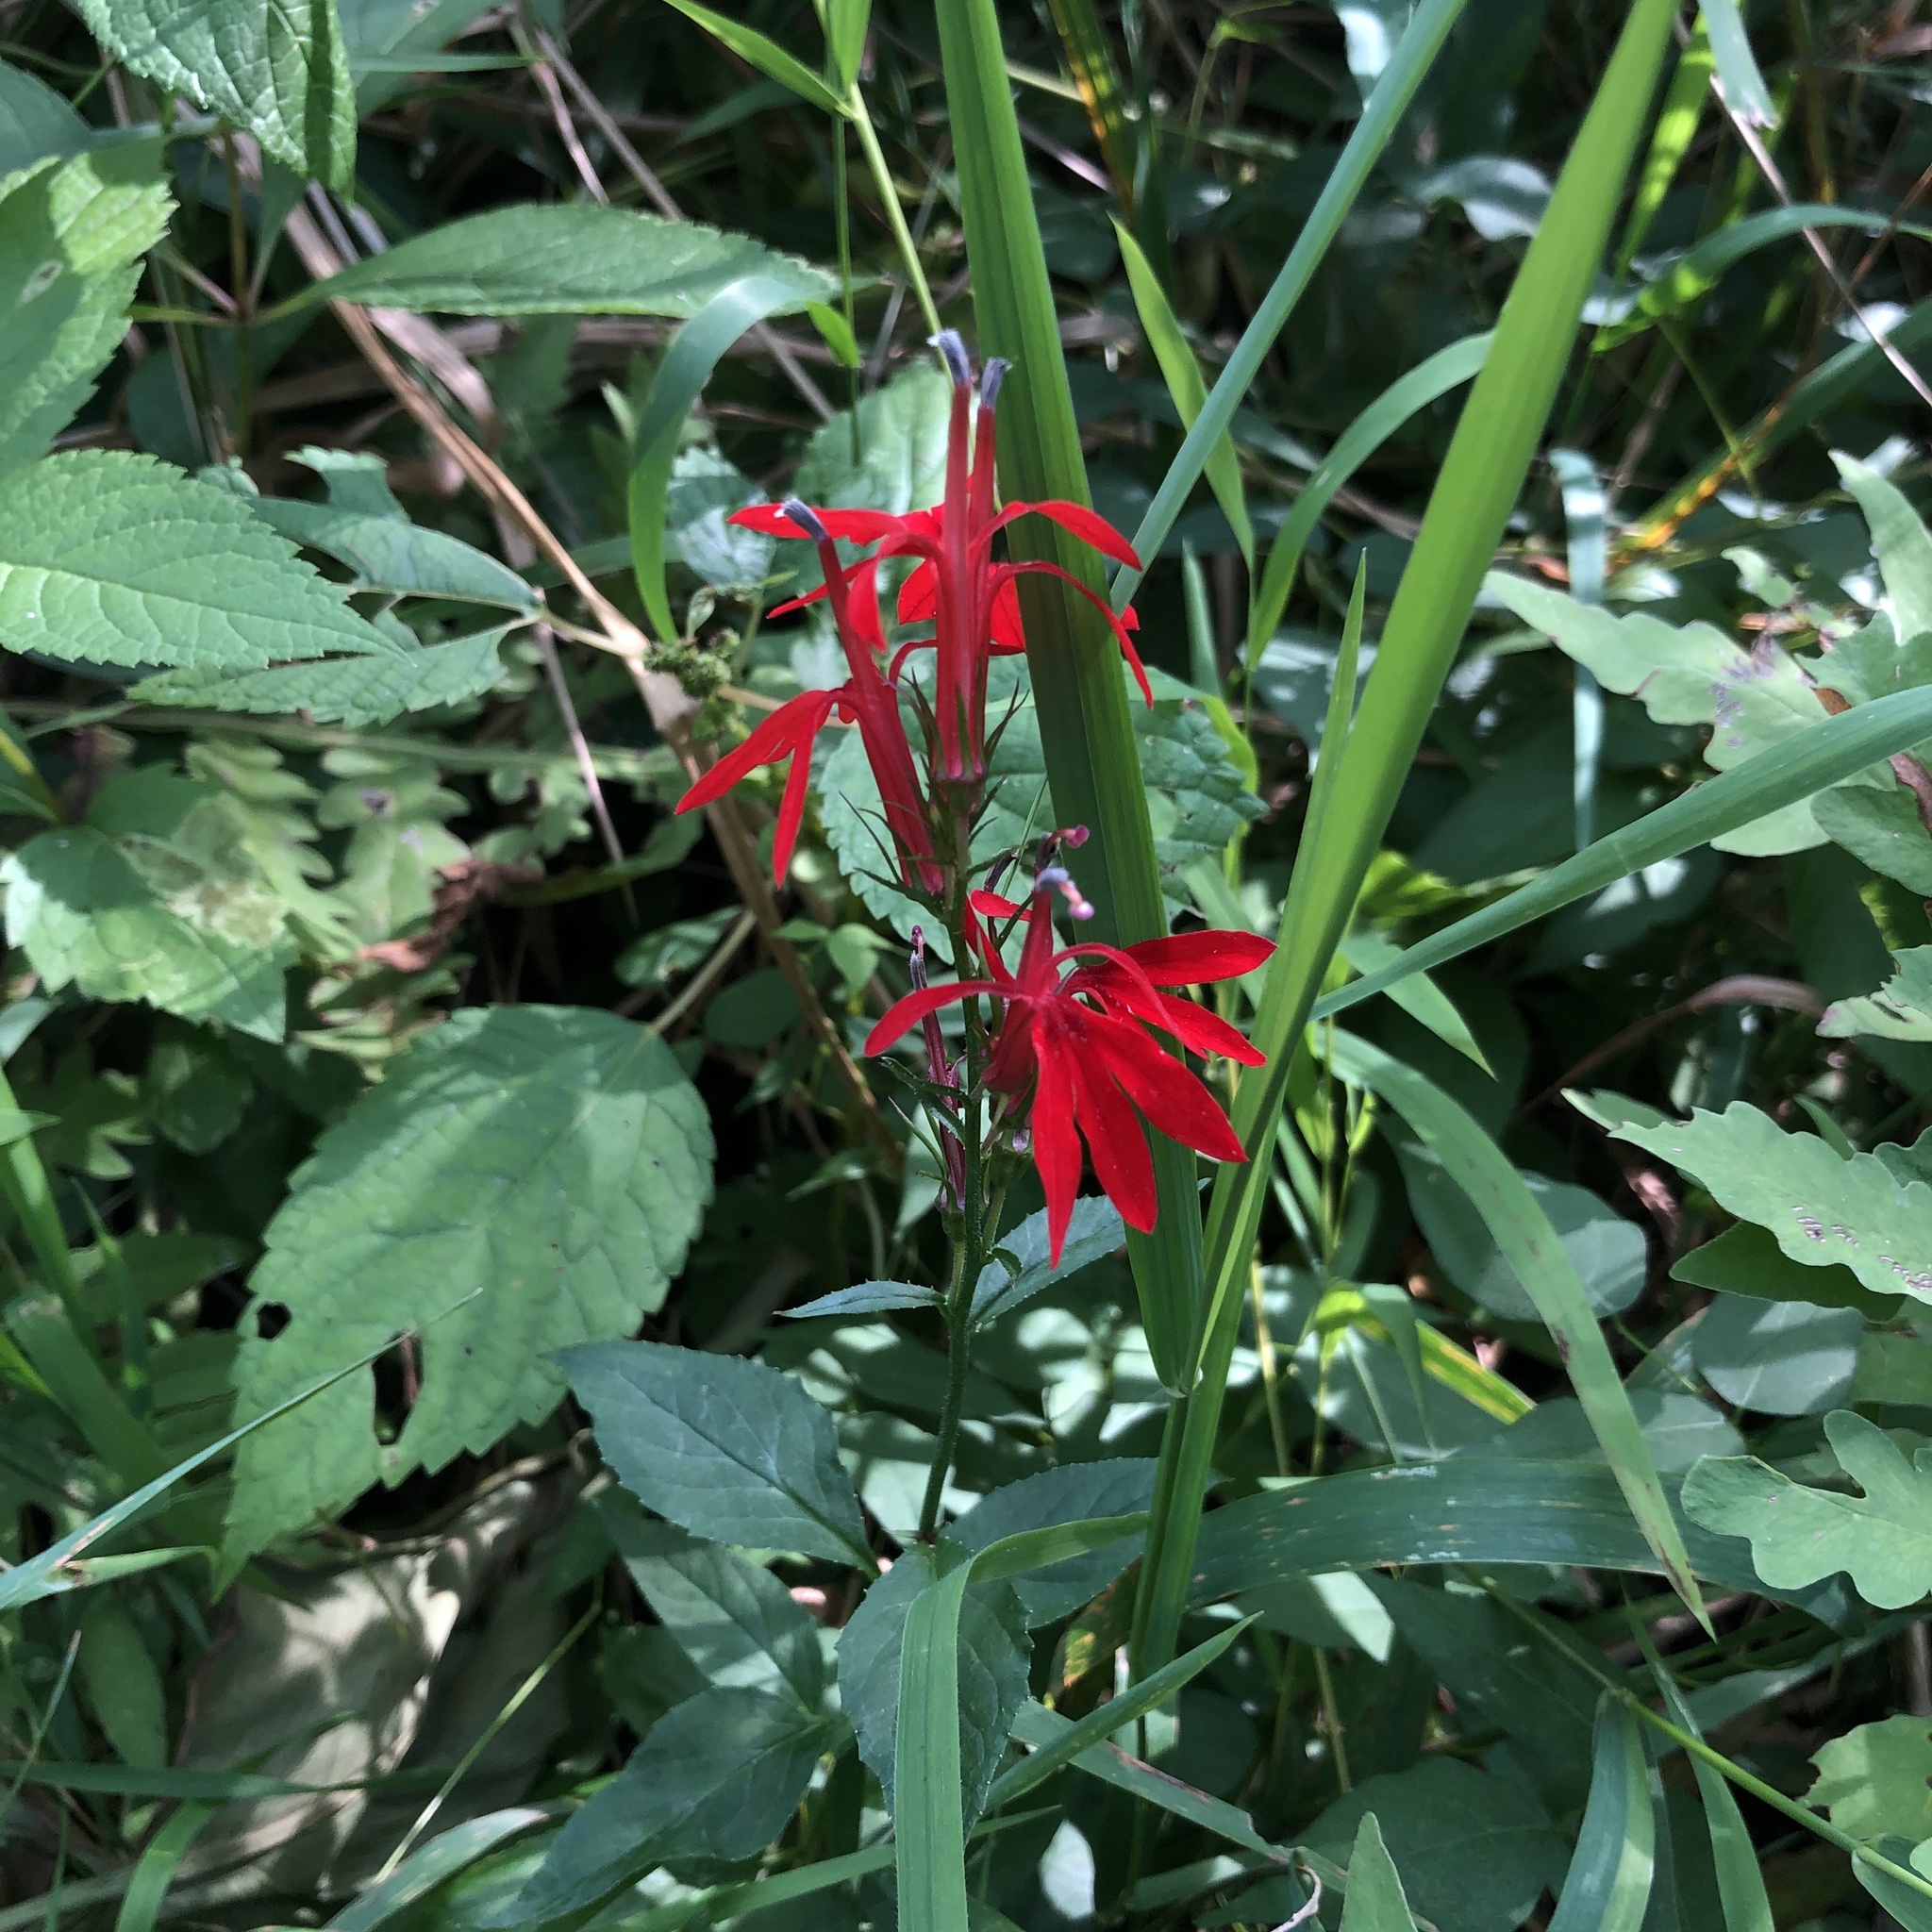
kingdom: Plantae
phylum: Tracheophyta
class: Magnoliopsida
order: Asterales
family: Campanulaceae
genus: Lobelia
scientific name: Lobelia cardinalis
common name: Cardinal flower
